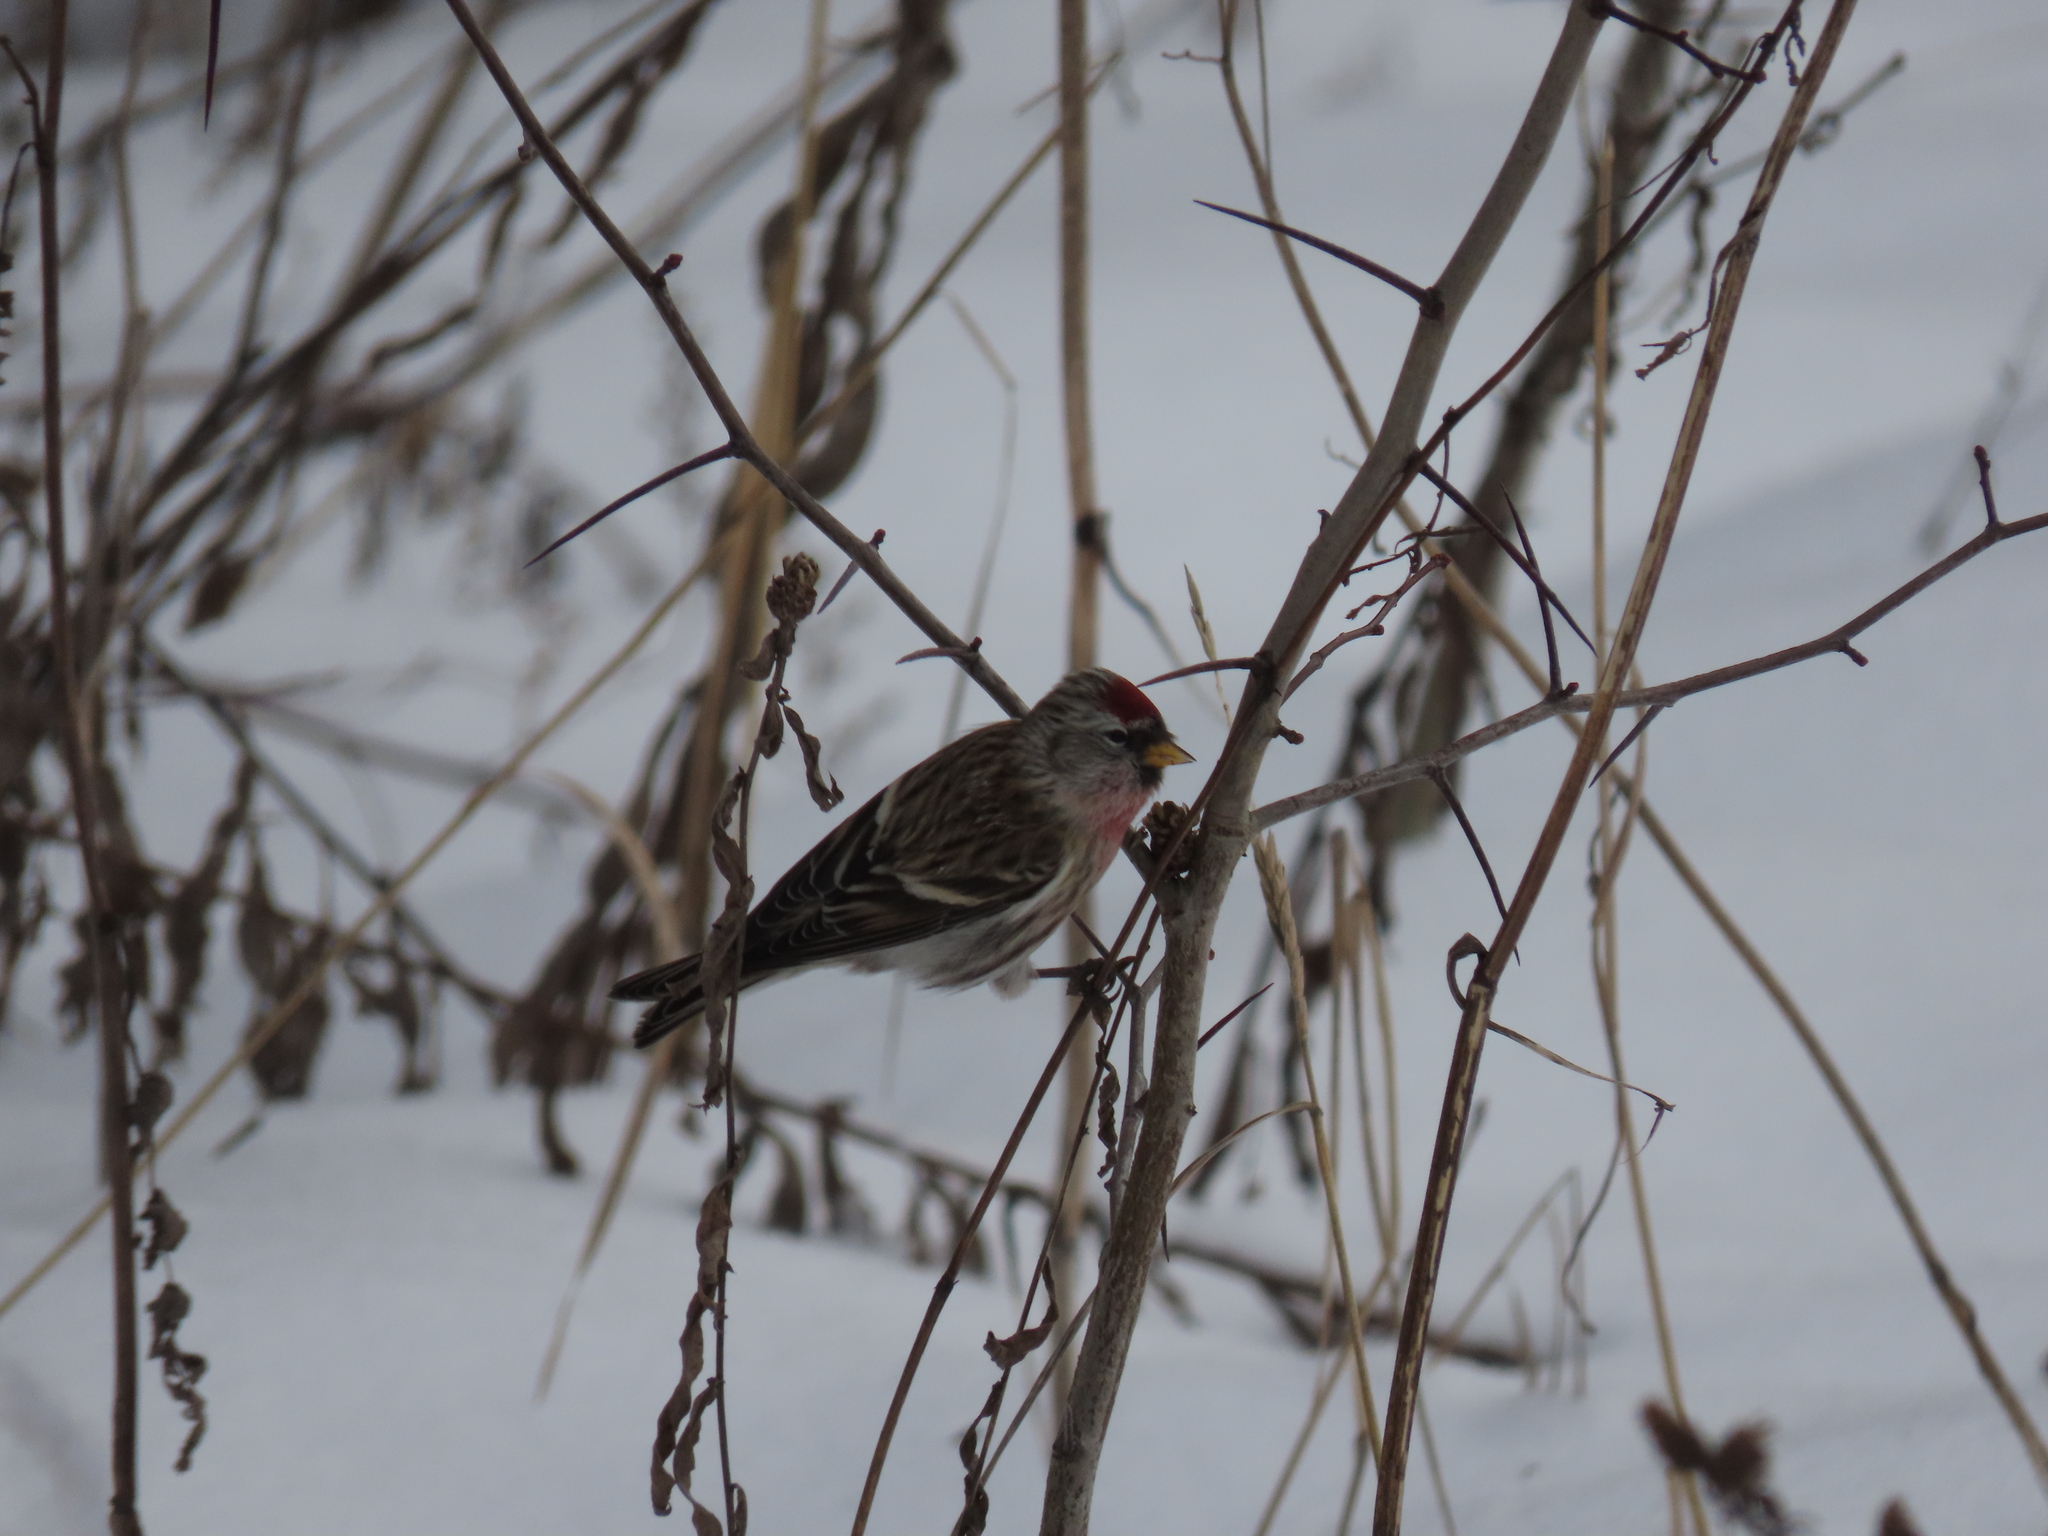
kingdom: Animalia
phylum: Chordata
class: Aves
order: Passeriformes
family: Fringillidae
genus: Acanthis
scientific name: Acanthis flammea
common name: Common redpoll
